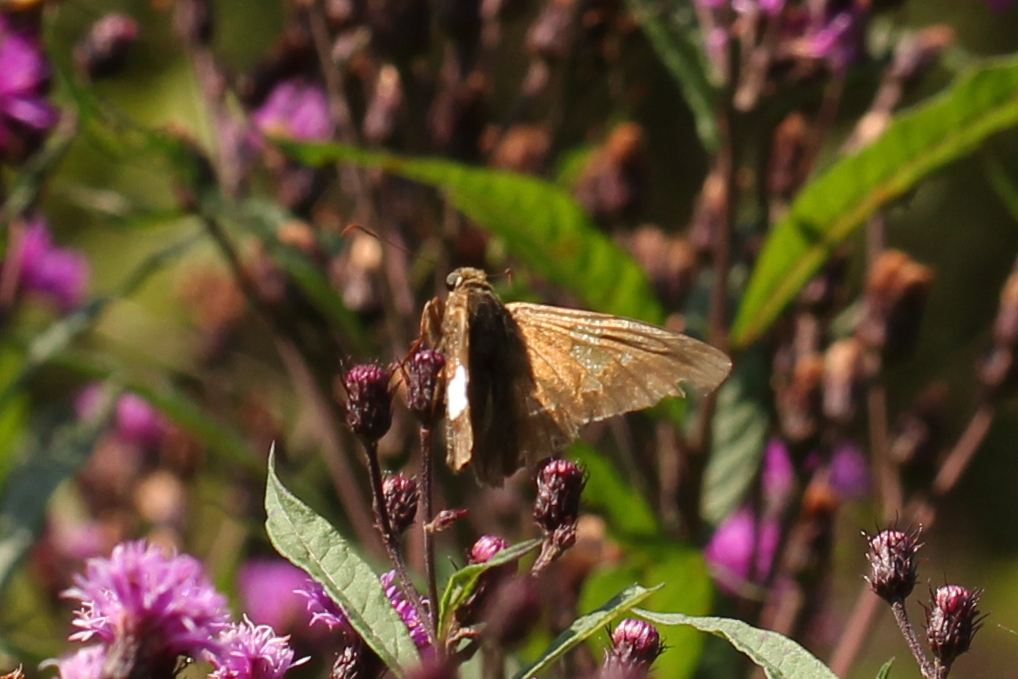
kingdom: Animalia
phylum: Arthropoda
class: Insecta
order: Lepidoptera
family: Hesperiidae
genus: Epargyreus
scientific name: Epargyreus clarus
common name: Silver-spotted skipper
